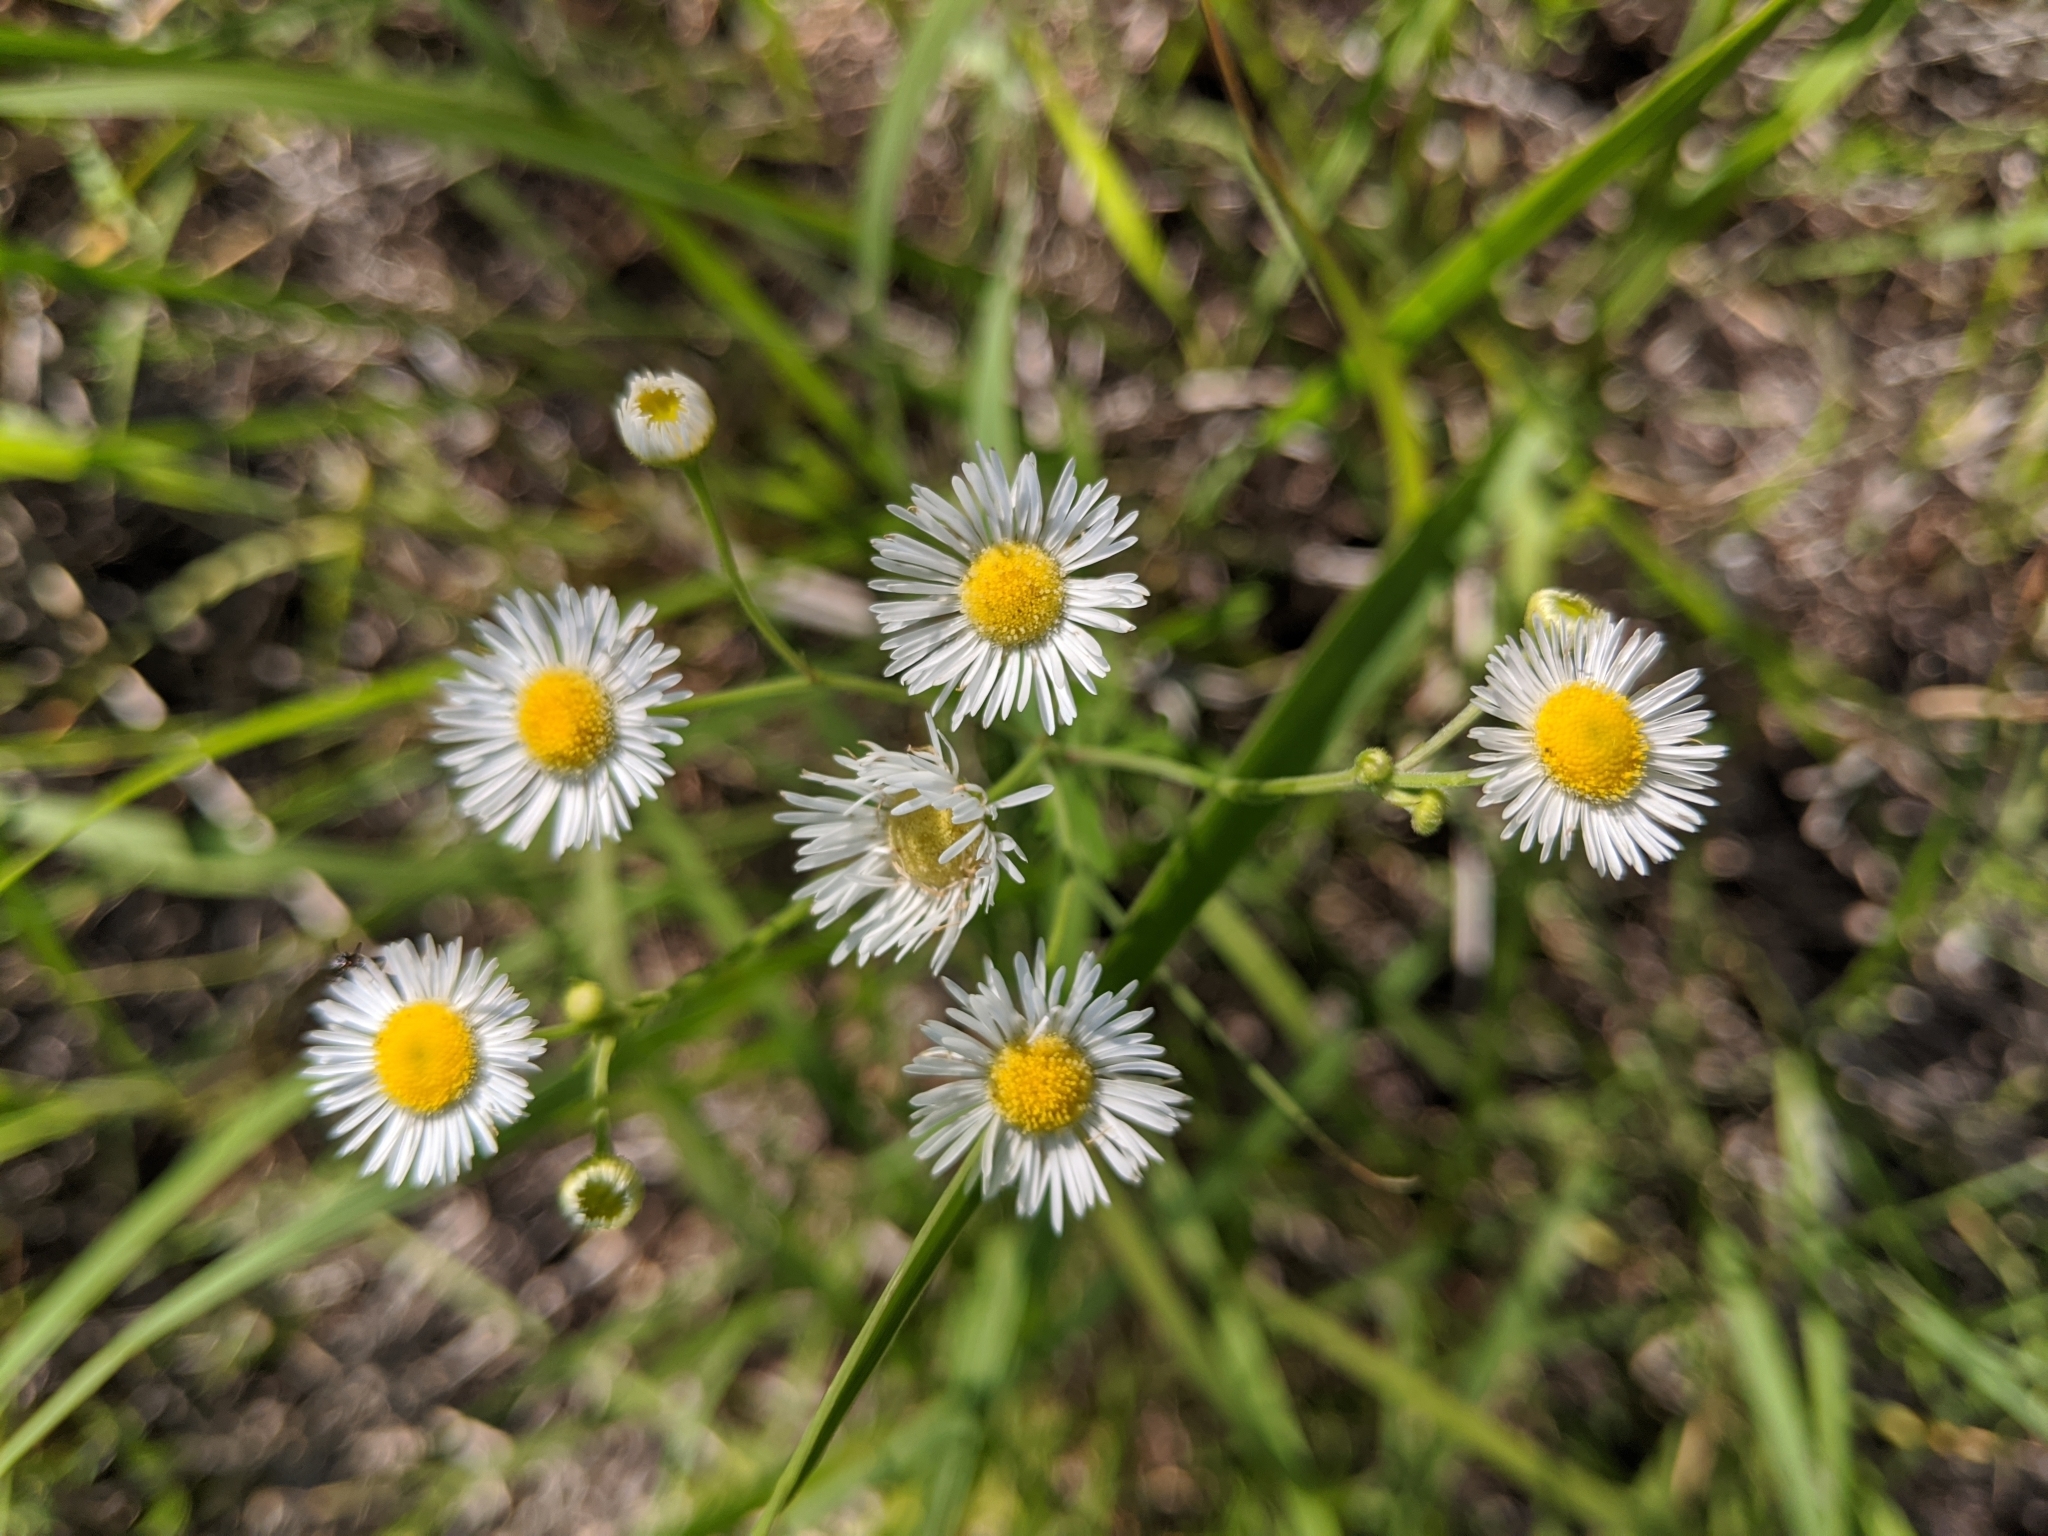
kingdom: Plantae
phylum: Tracheophyta
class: Magnoliopsida
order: Asterales
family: Asteraceae
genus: Erigeron
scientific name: Erigeron strigosus
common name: Common eastern fleabane
